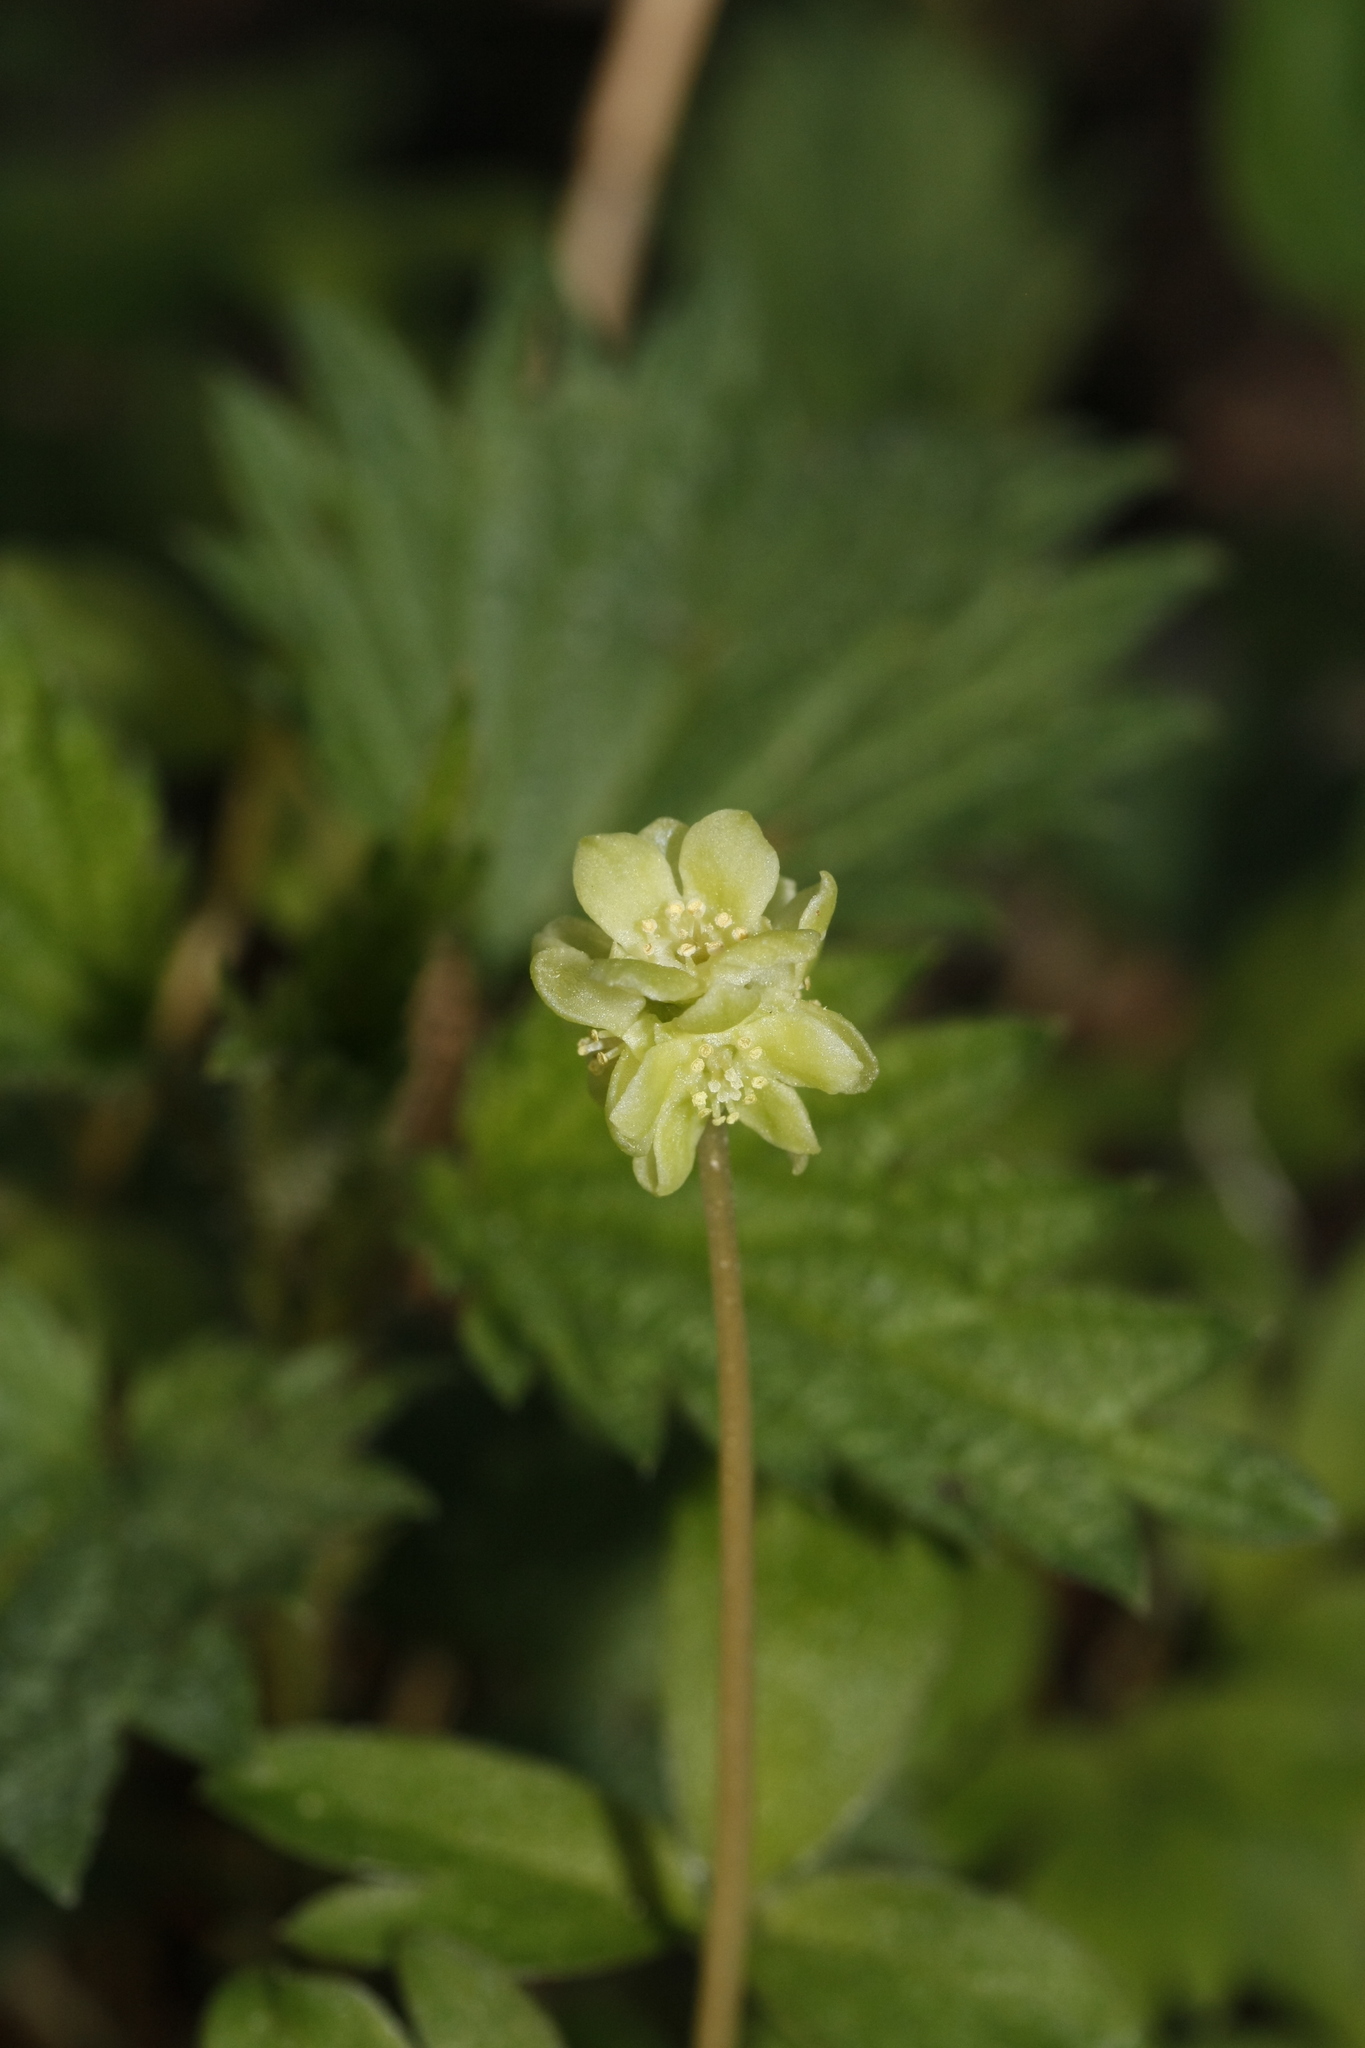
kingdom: Plantae
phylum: Tracheophyta
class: Magnoliopsida
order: Dipsacales
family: Viburnaceae
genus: Adoxa
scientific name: Adoxa moschatellina
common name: Moschatel
